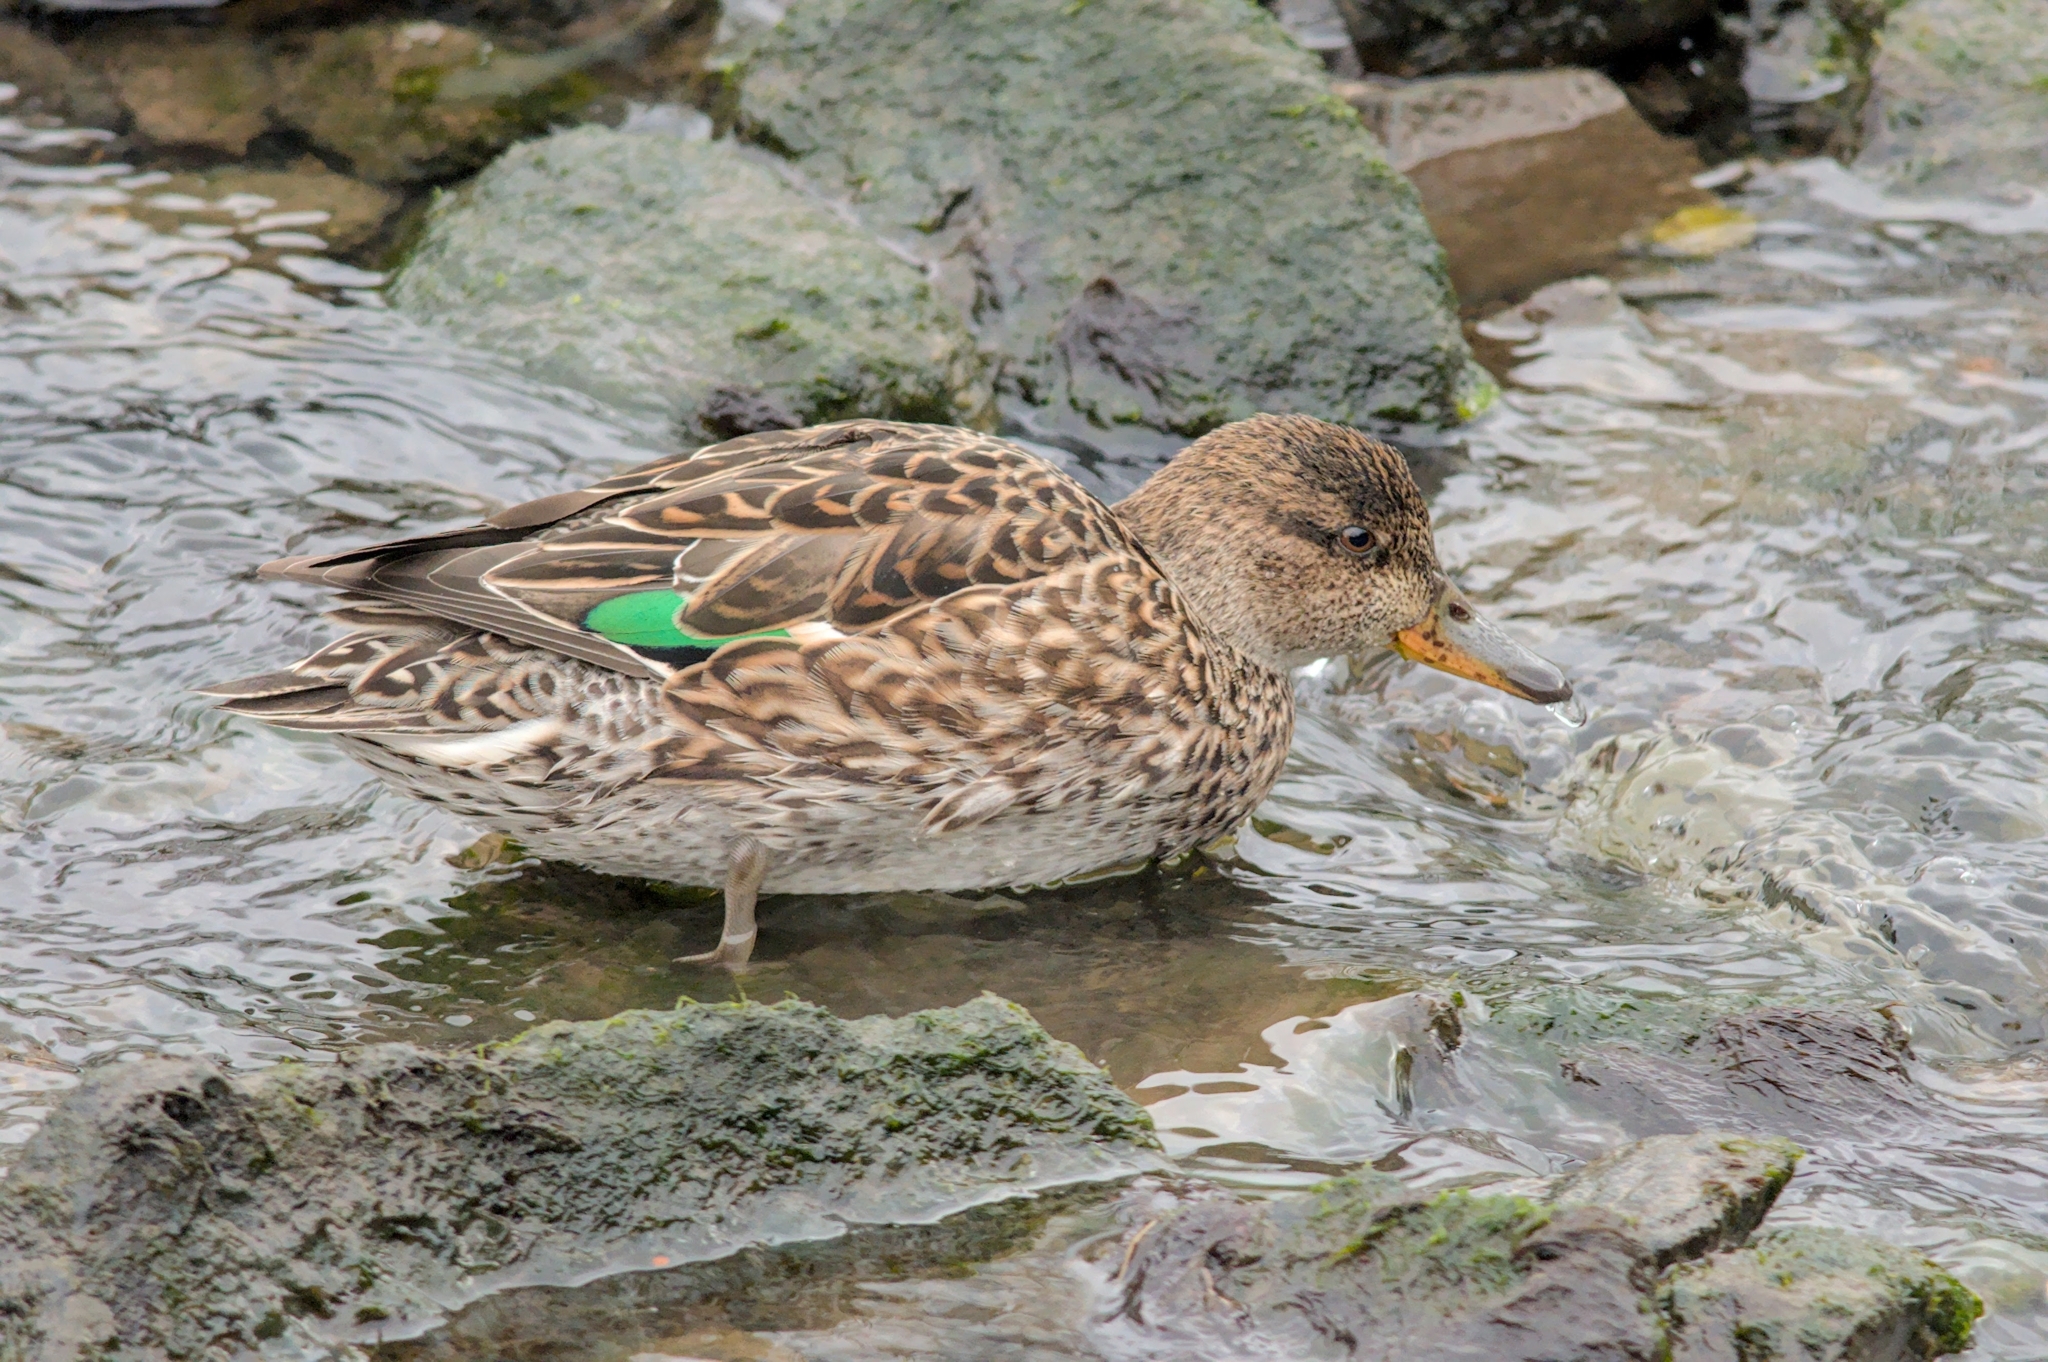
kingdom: Animalia
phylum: Chordata
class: Aves
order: Anseriformes
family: Anatidae
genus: Anas
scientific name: Anas crecca
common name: Eurasian teal
